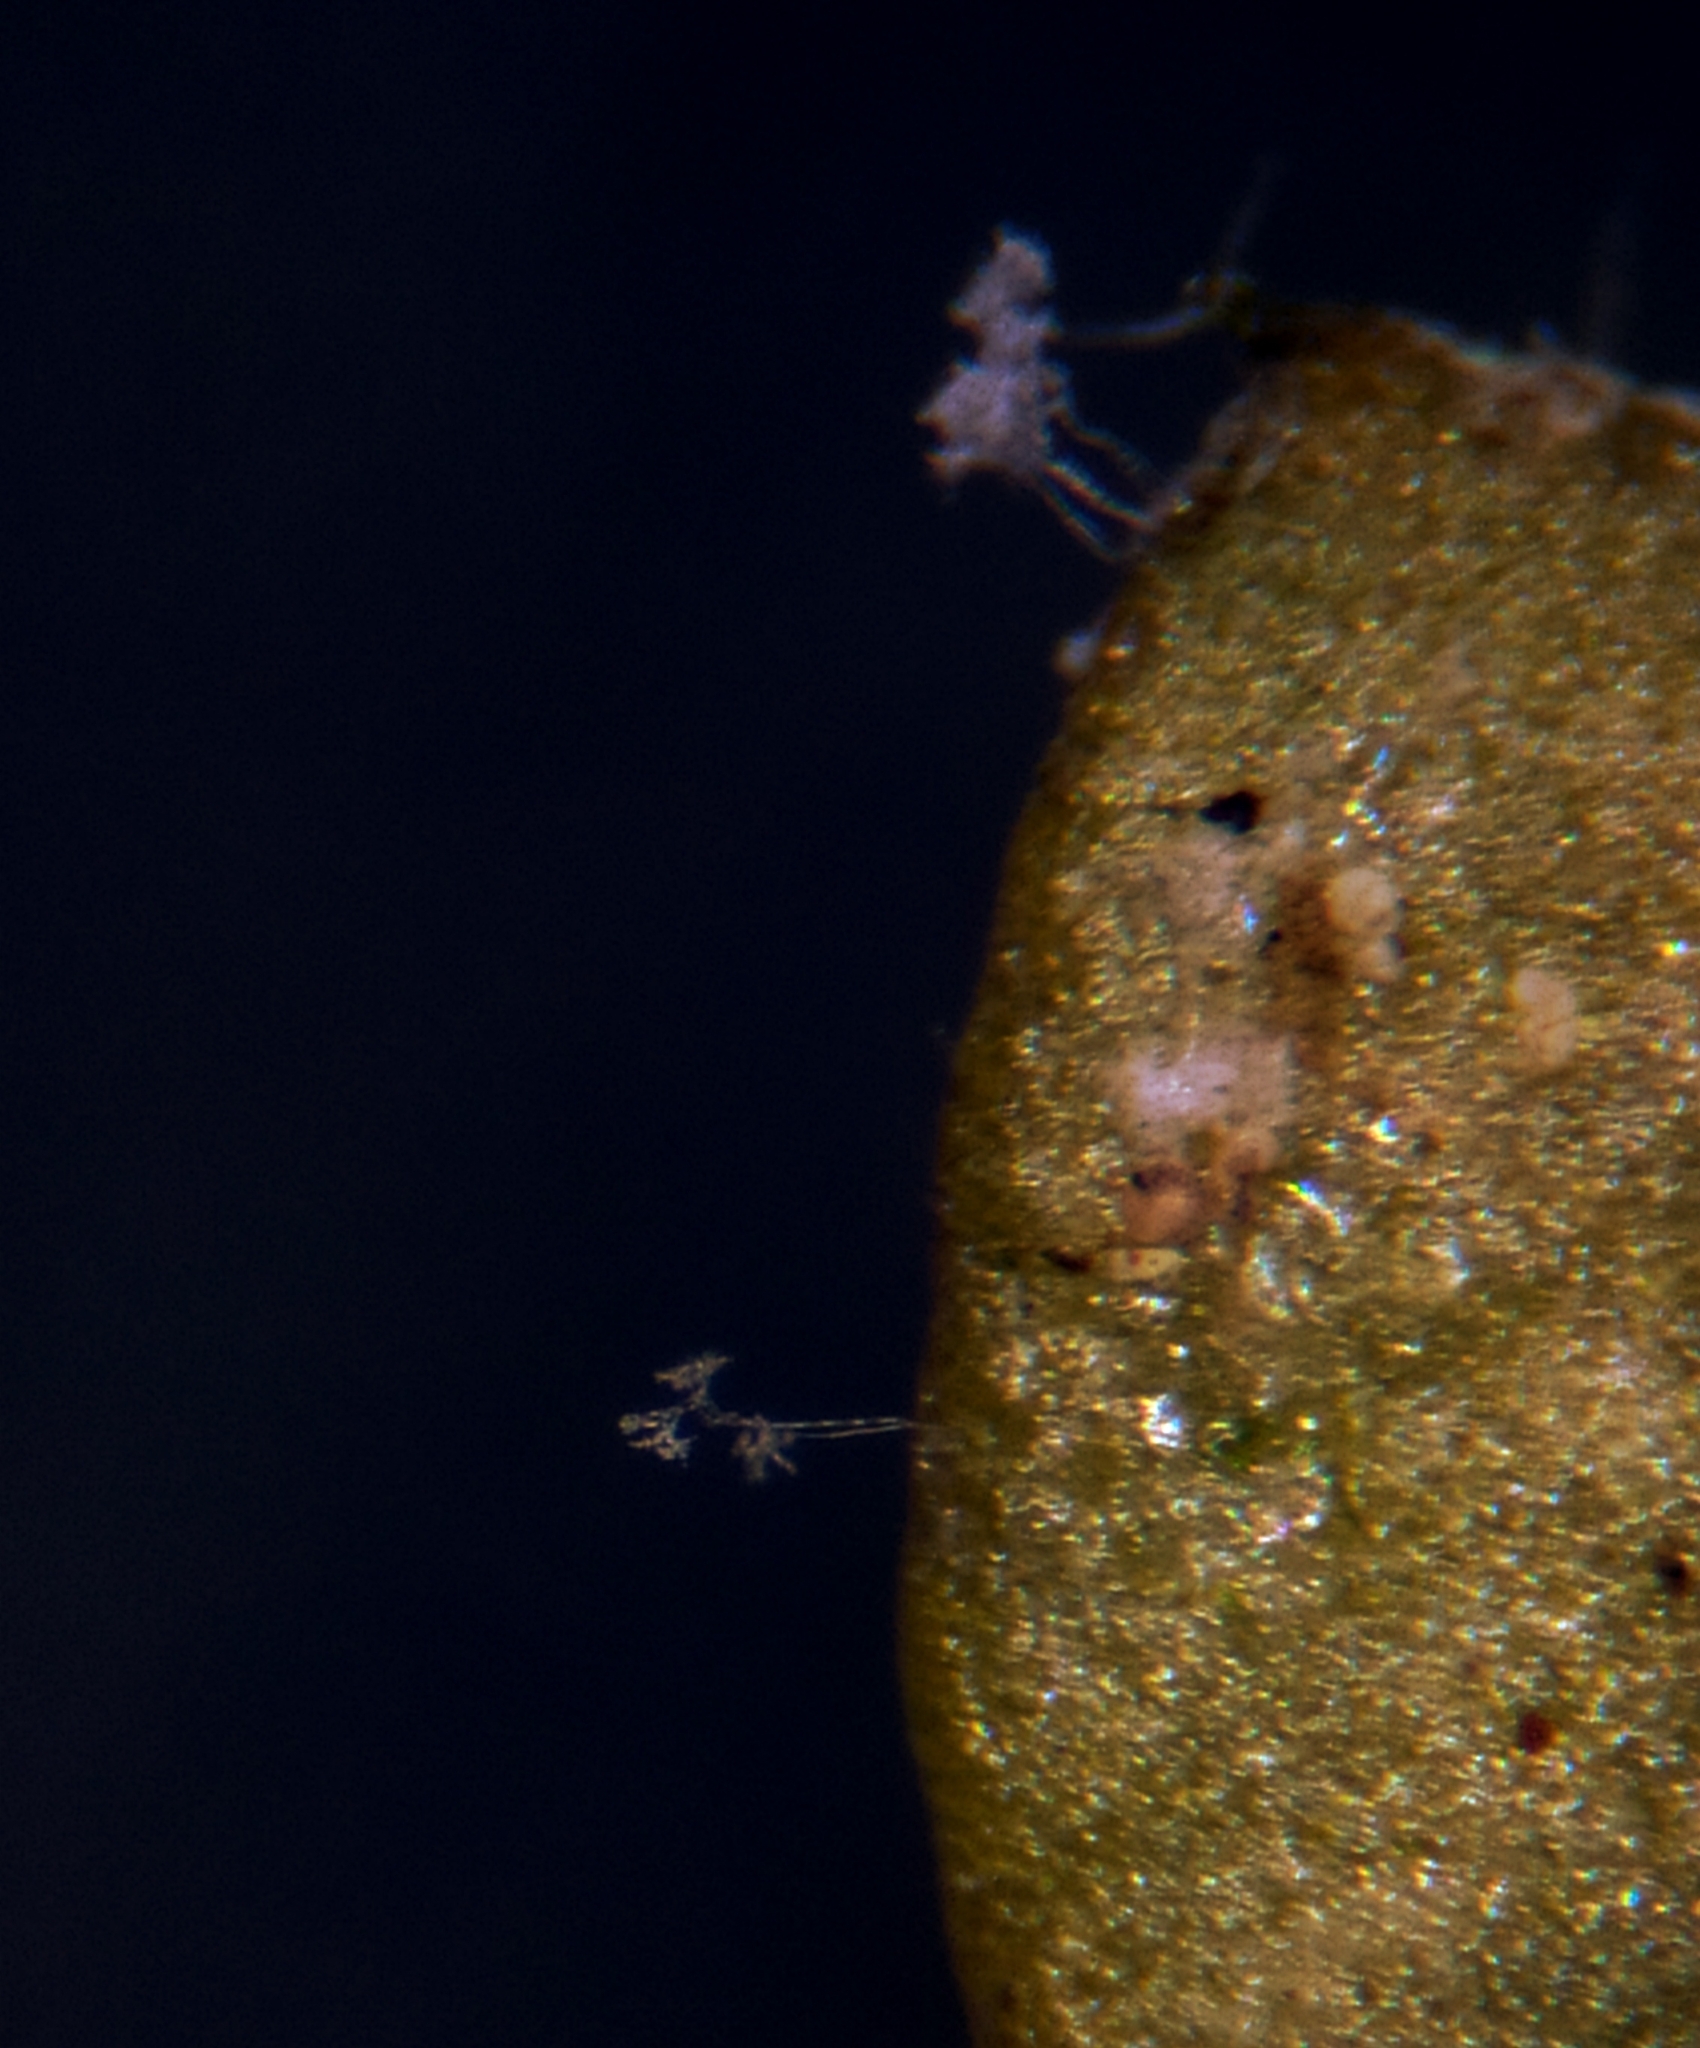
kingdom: Chromista
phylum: Oomycota
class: Peronosporea
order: Peronosporales
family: Peronosporaceae
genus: Hyaloperonospora
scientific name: Hyaloperonospora praecox
